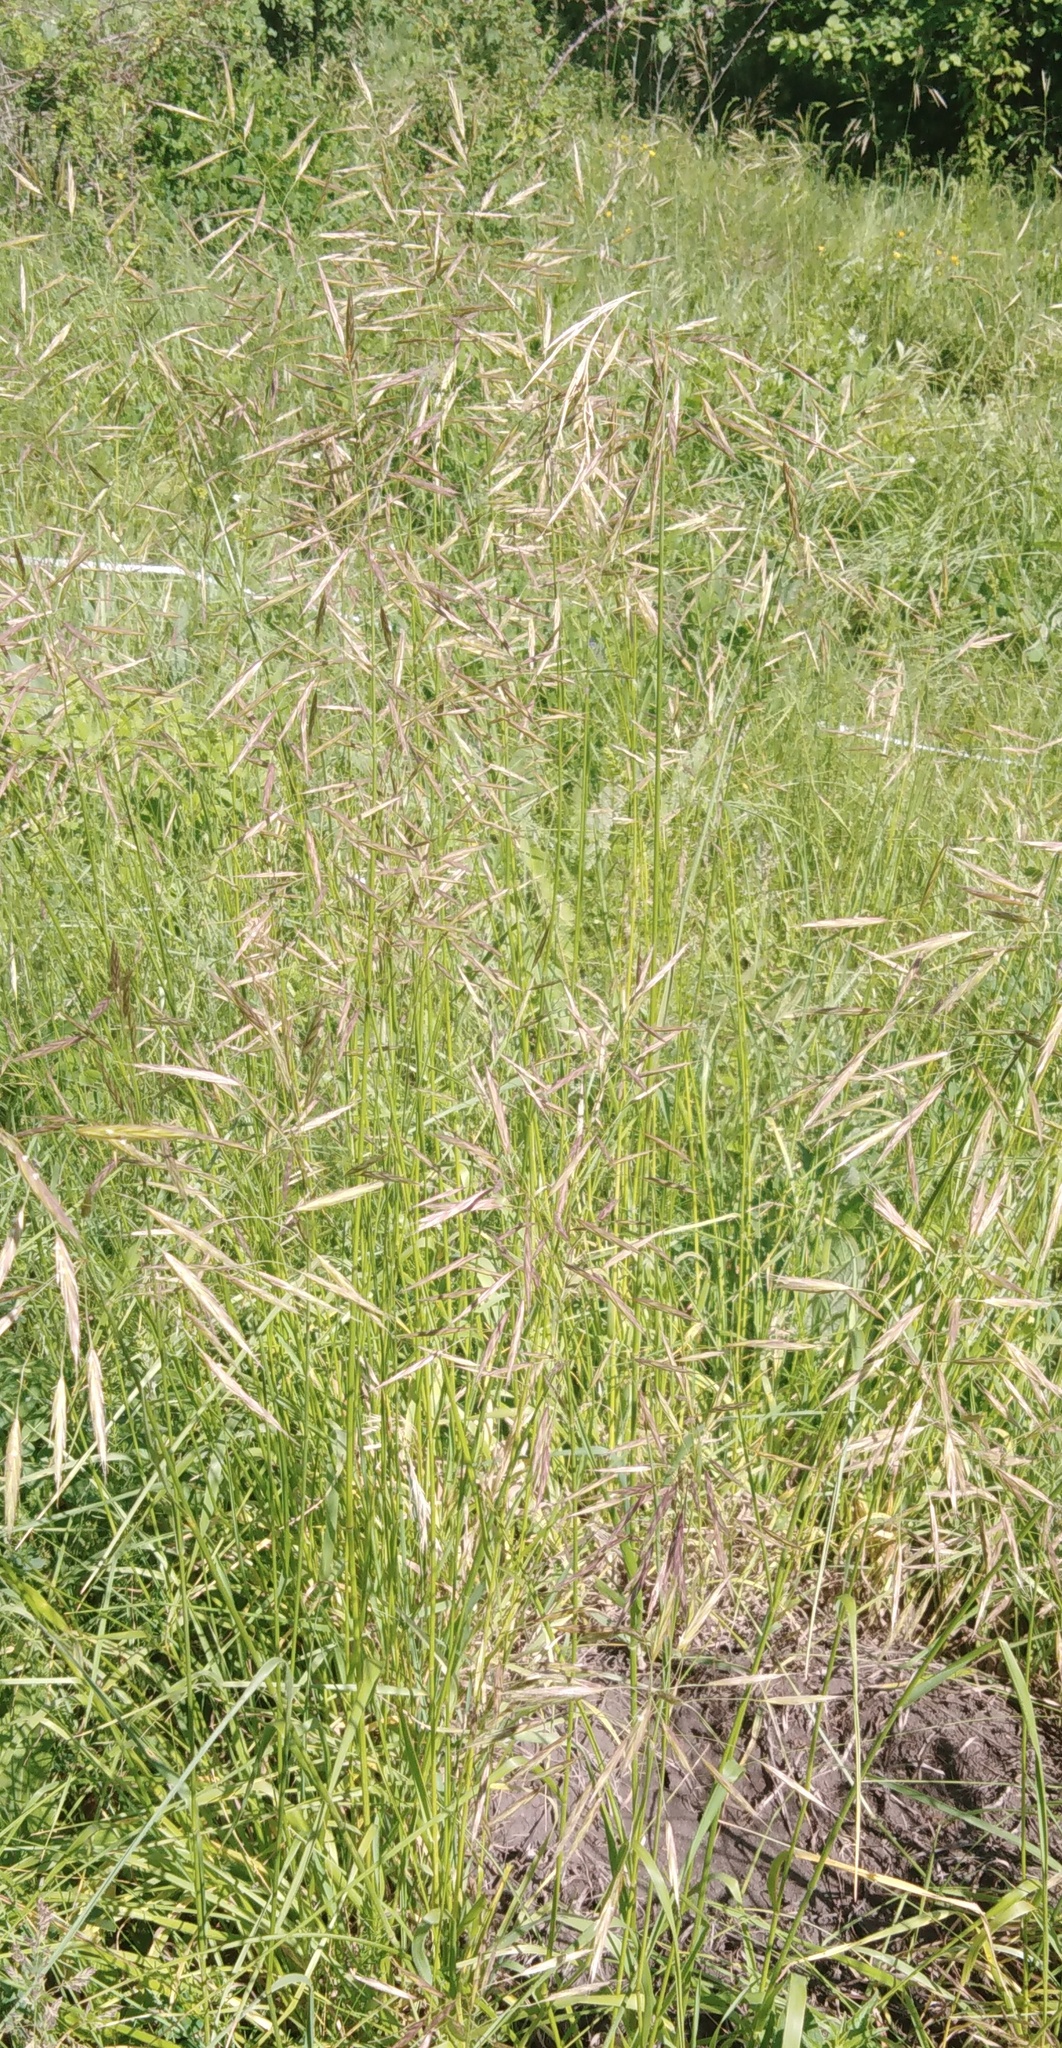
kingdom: Plantae
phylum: Tracheophyta
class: Liliopsida
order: Poales
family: Poaceae
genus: Bromus
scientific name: Bromus riparius
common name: Meadow brome
